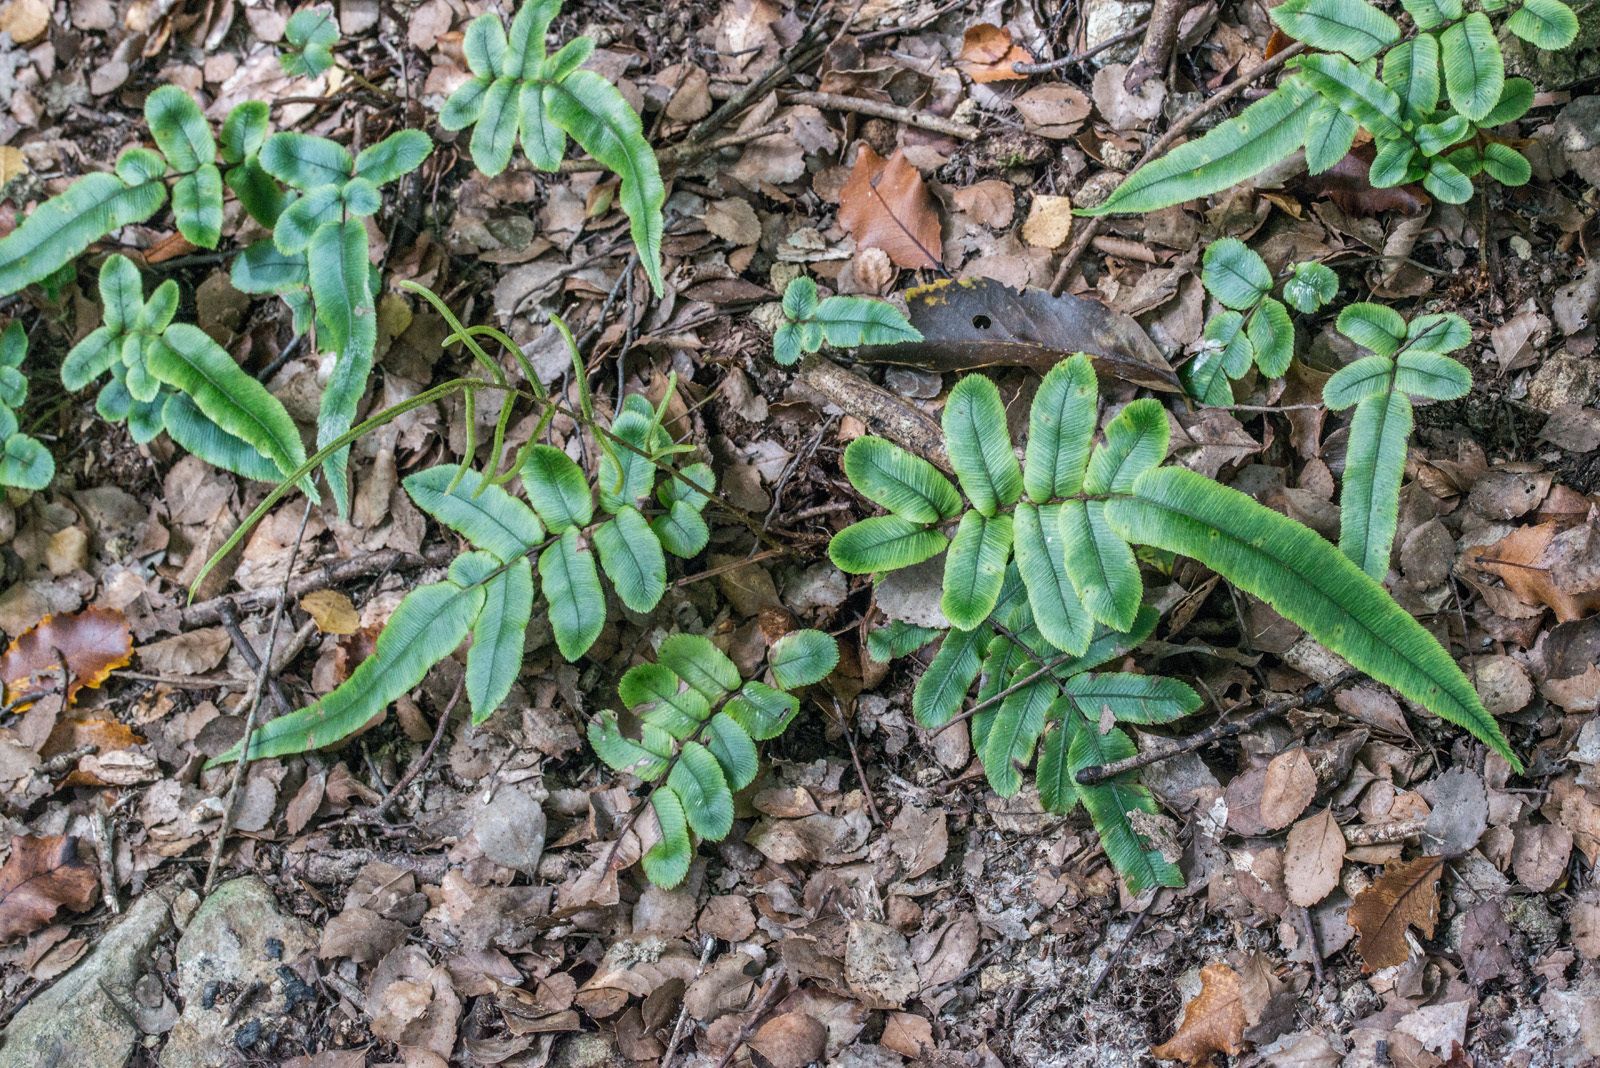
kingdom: Plantae
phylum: Tracheophyta
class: Polypodiopsida
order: Polypodiales
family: Blechnaceae
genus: Blechnum
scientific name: Blechnum
